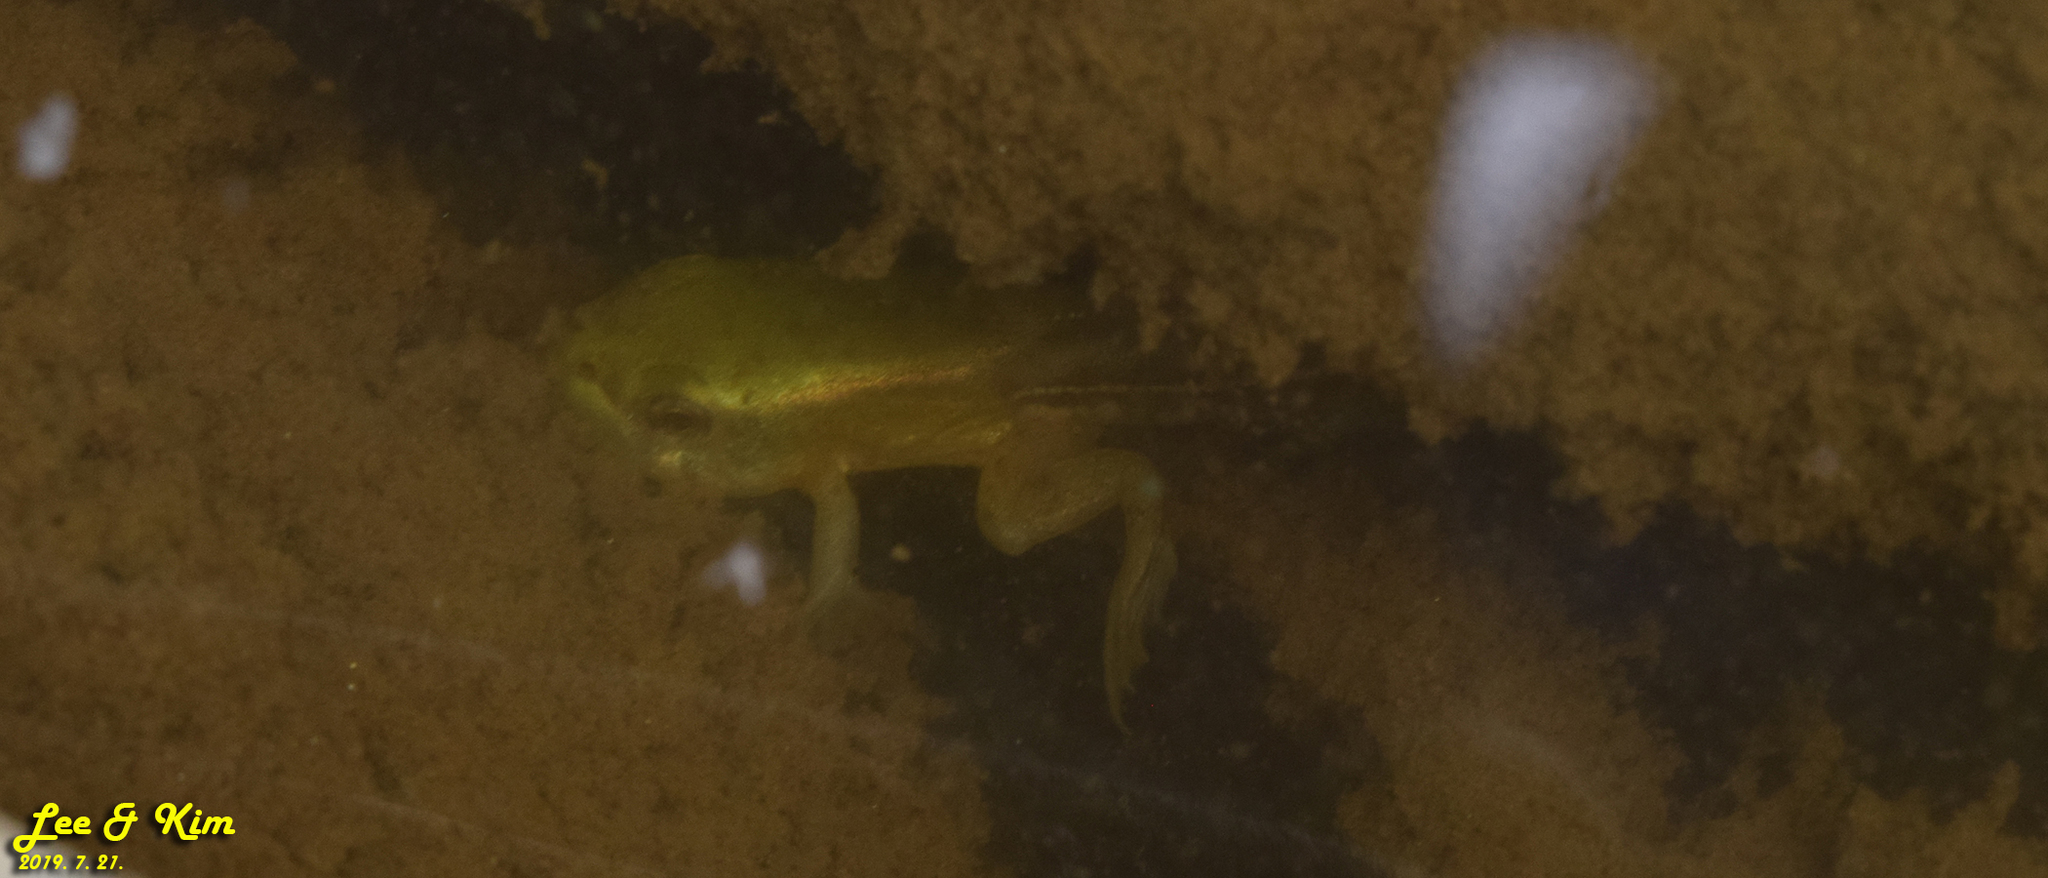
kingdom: Animalia
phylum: Chordata
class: Amphibia
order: Anura
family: Ranidae
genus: Pelophylax
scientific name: Pelophylax chosenicus
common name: Gold-spotted pond frog
